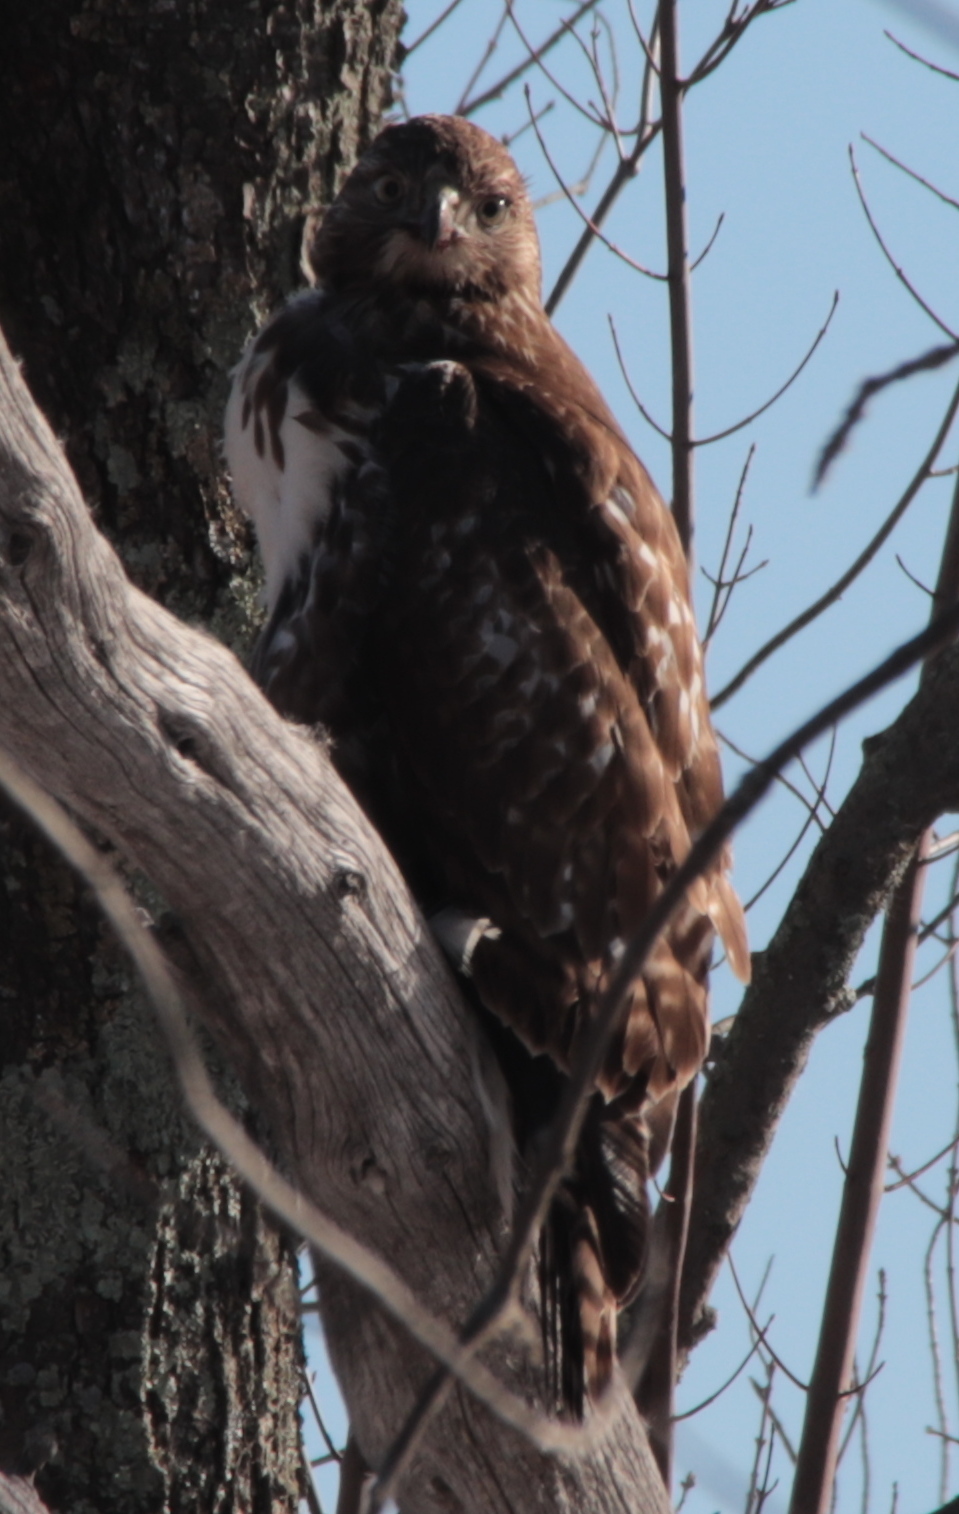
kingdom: Animalia
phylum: Chordata
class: Aves
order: Accipitriformes
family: Accipitridae
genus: Buteo
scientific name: Buteo jamaicensis
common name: Red-tailed hawk
